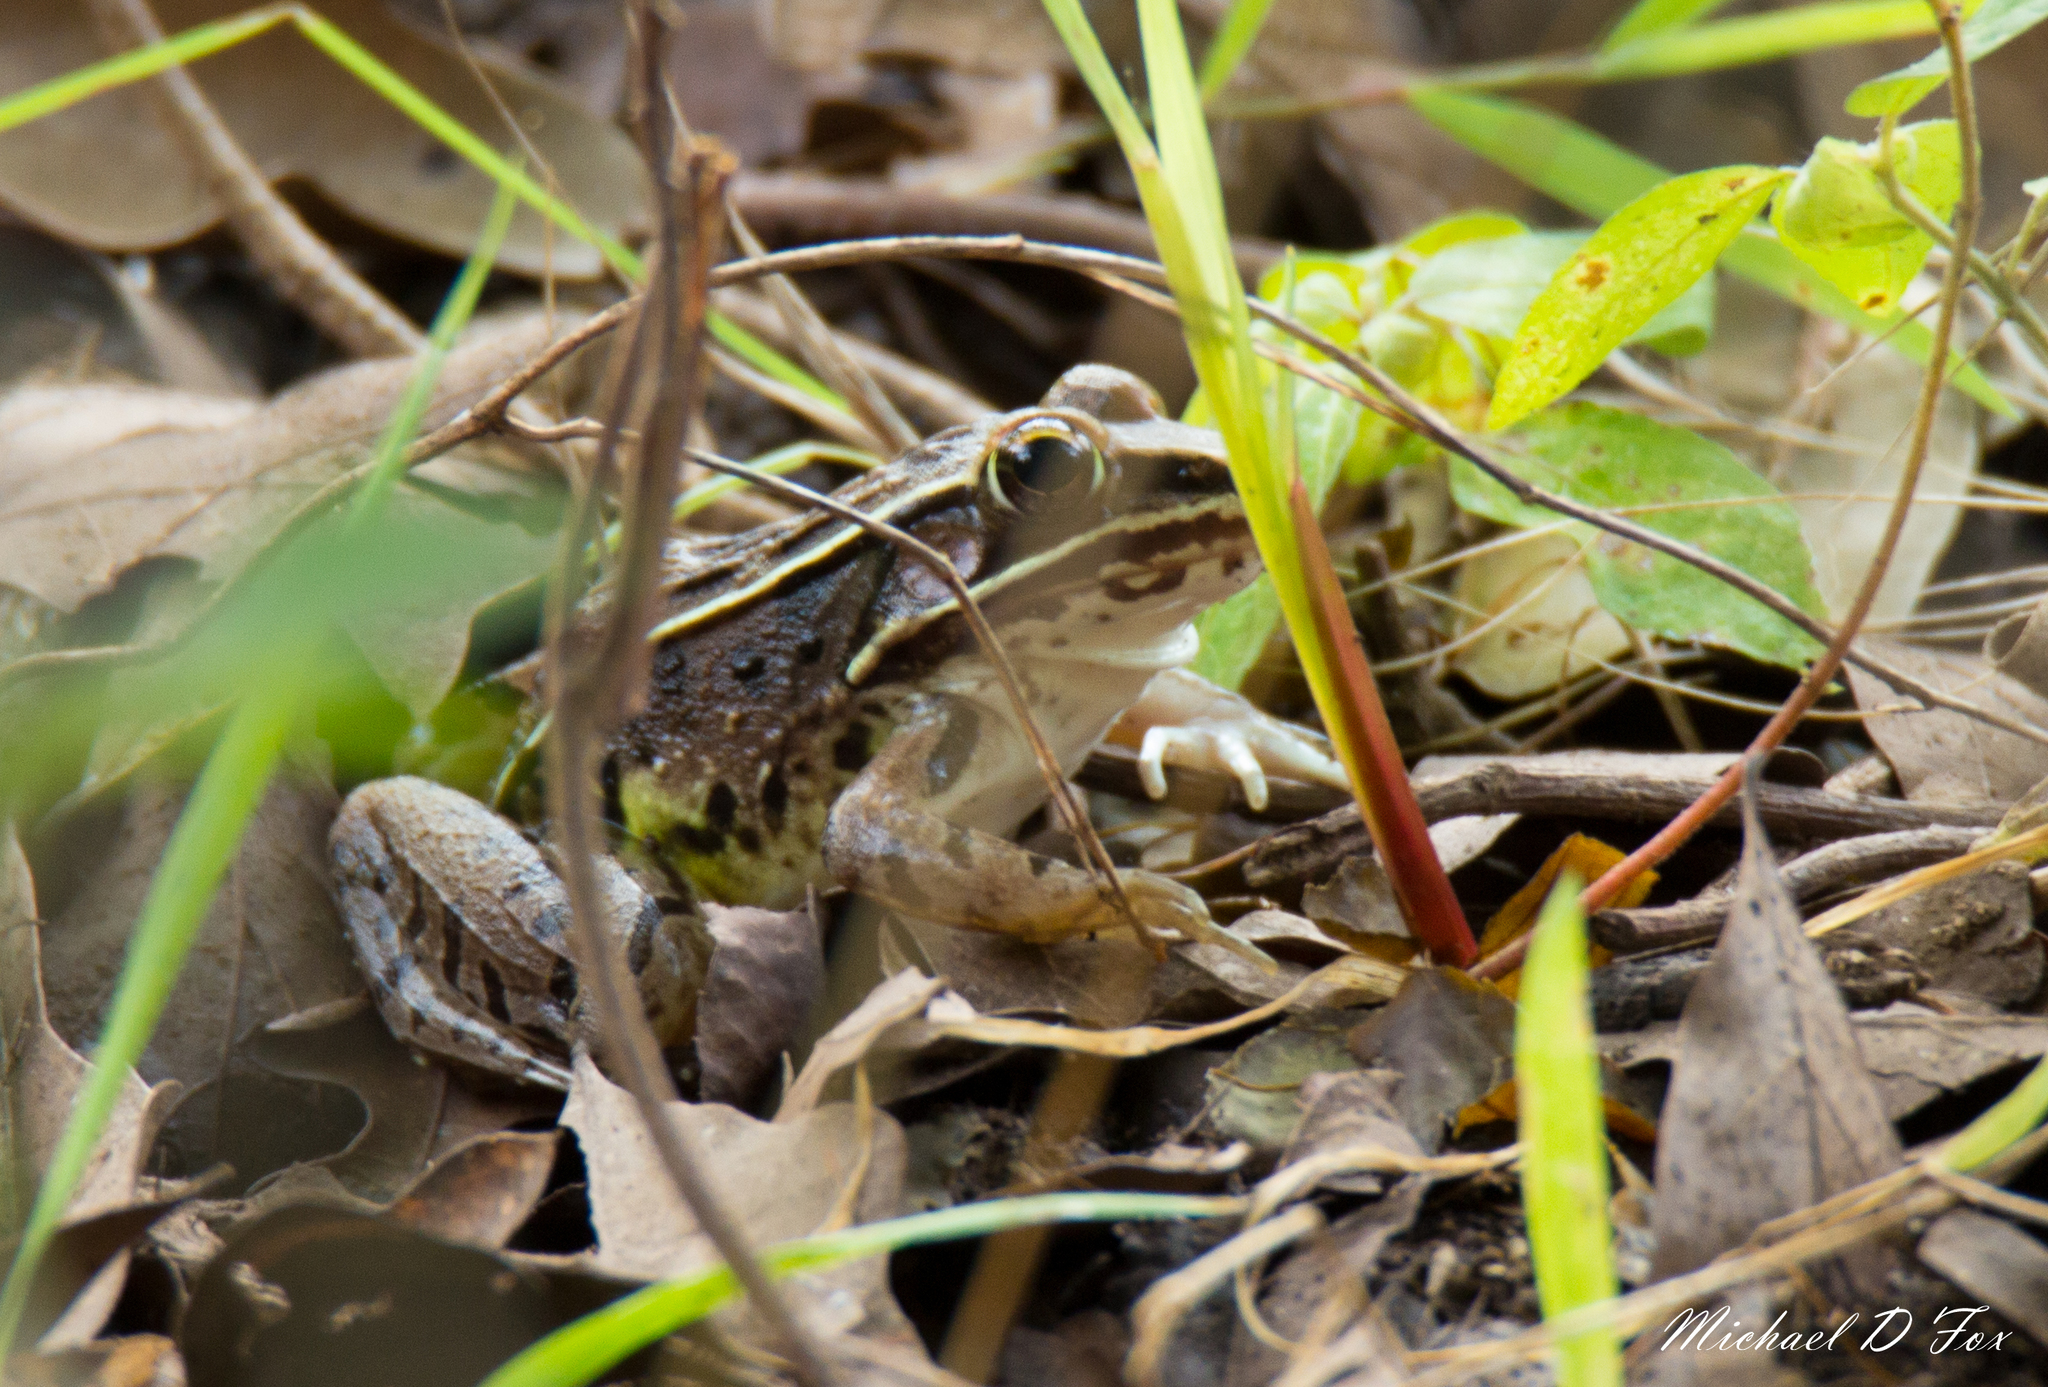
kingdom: Animalia
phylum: Chordata
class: Amphibia
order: Anura
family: Ranidae
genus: Lithobates
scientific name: Lithobates sphenocephalus
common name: Southern leopard frog
